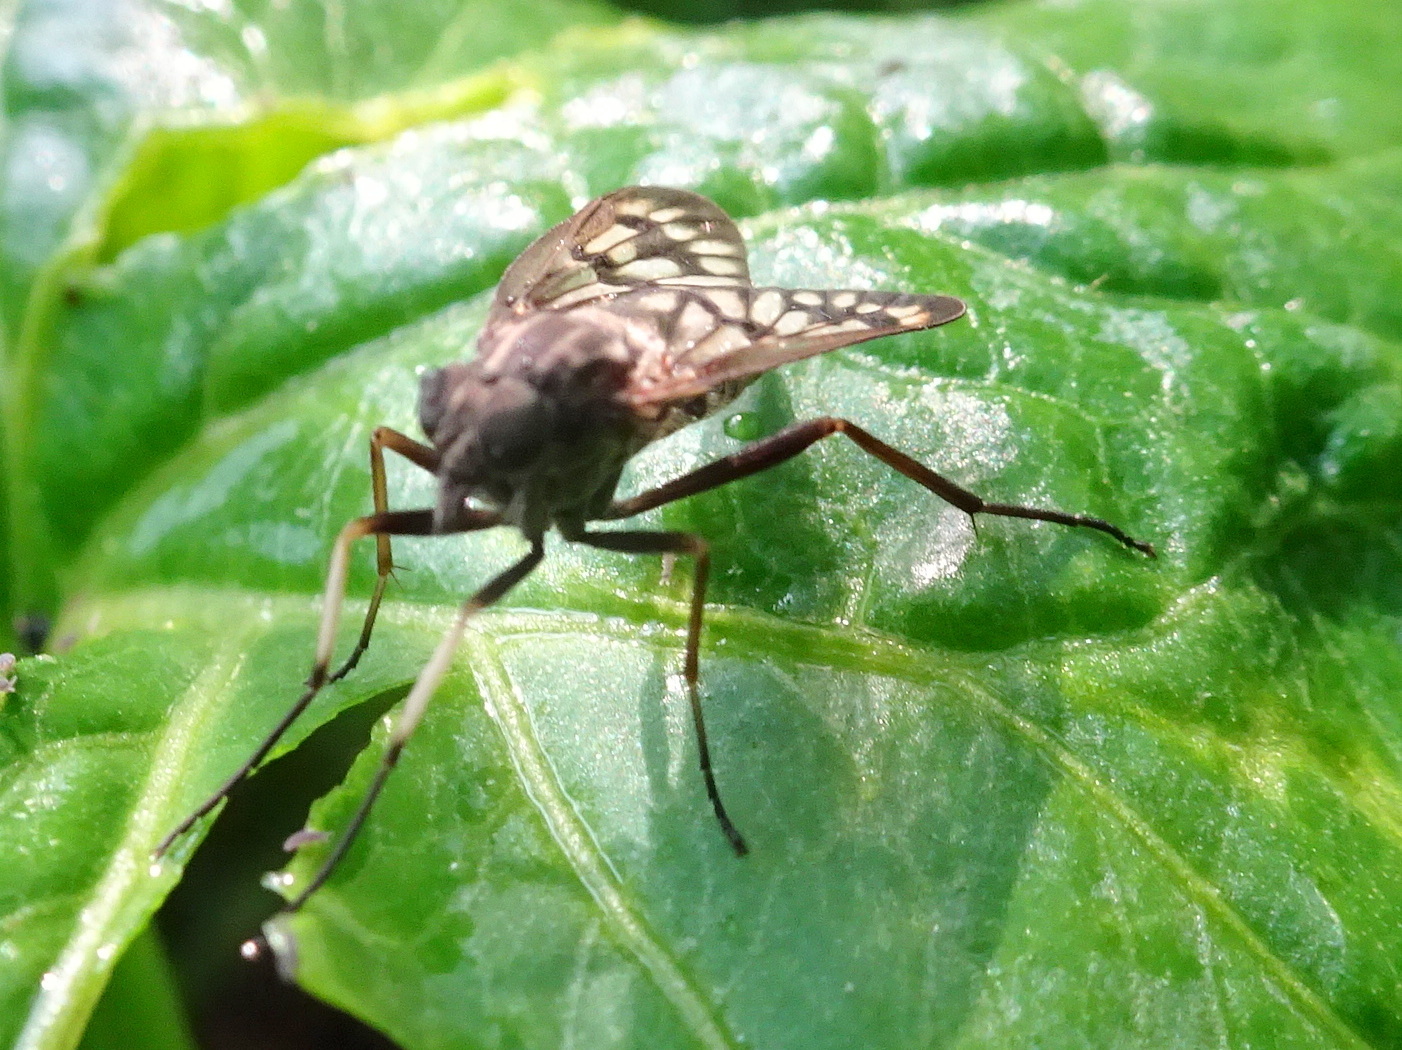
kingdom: Animalia
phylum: Arthropoda
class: Insecta
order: Diptera
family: Rhagionidae
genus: Rhagio
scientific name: Rhagio mystaceus
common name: Common snipe fly
